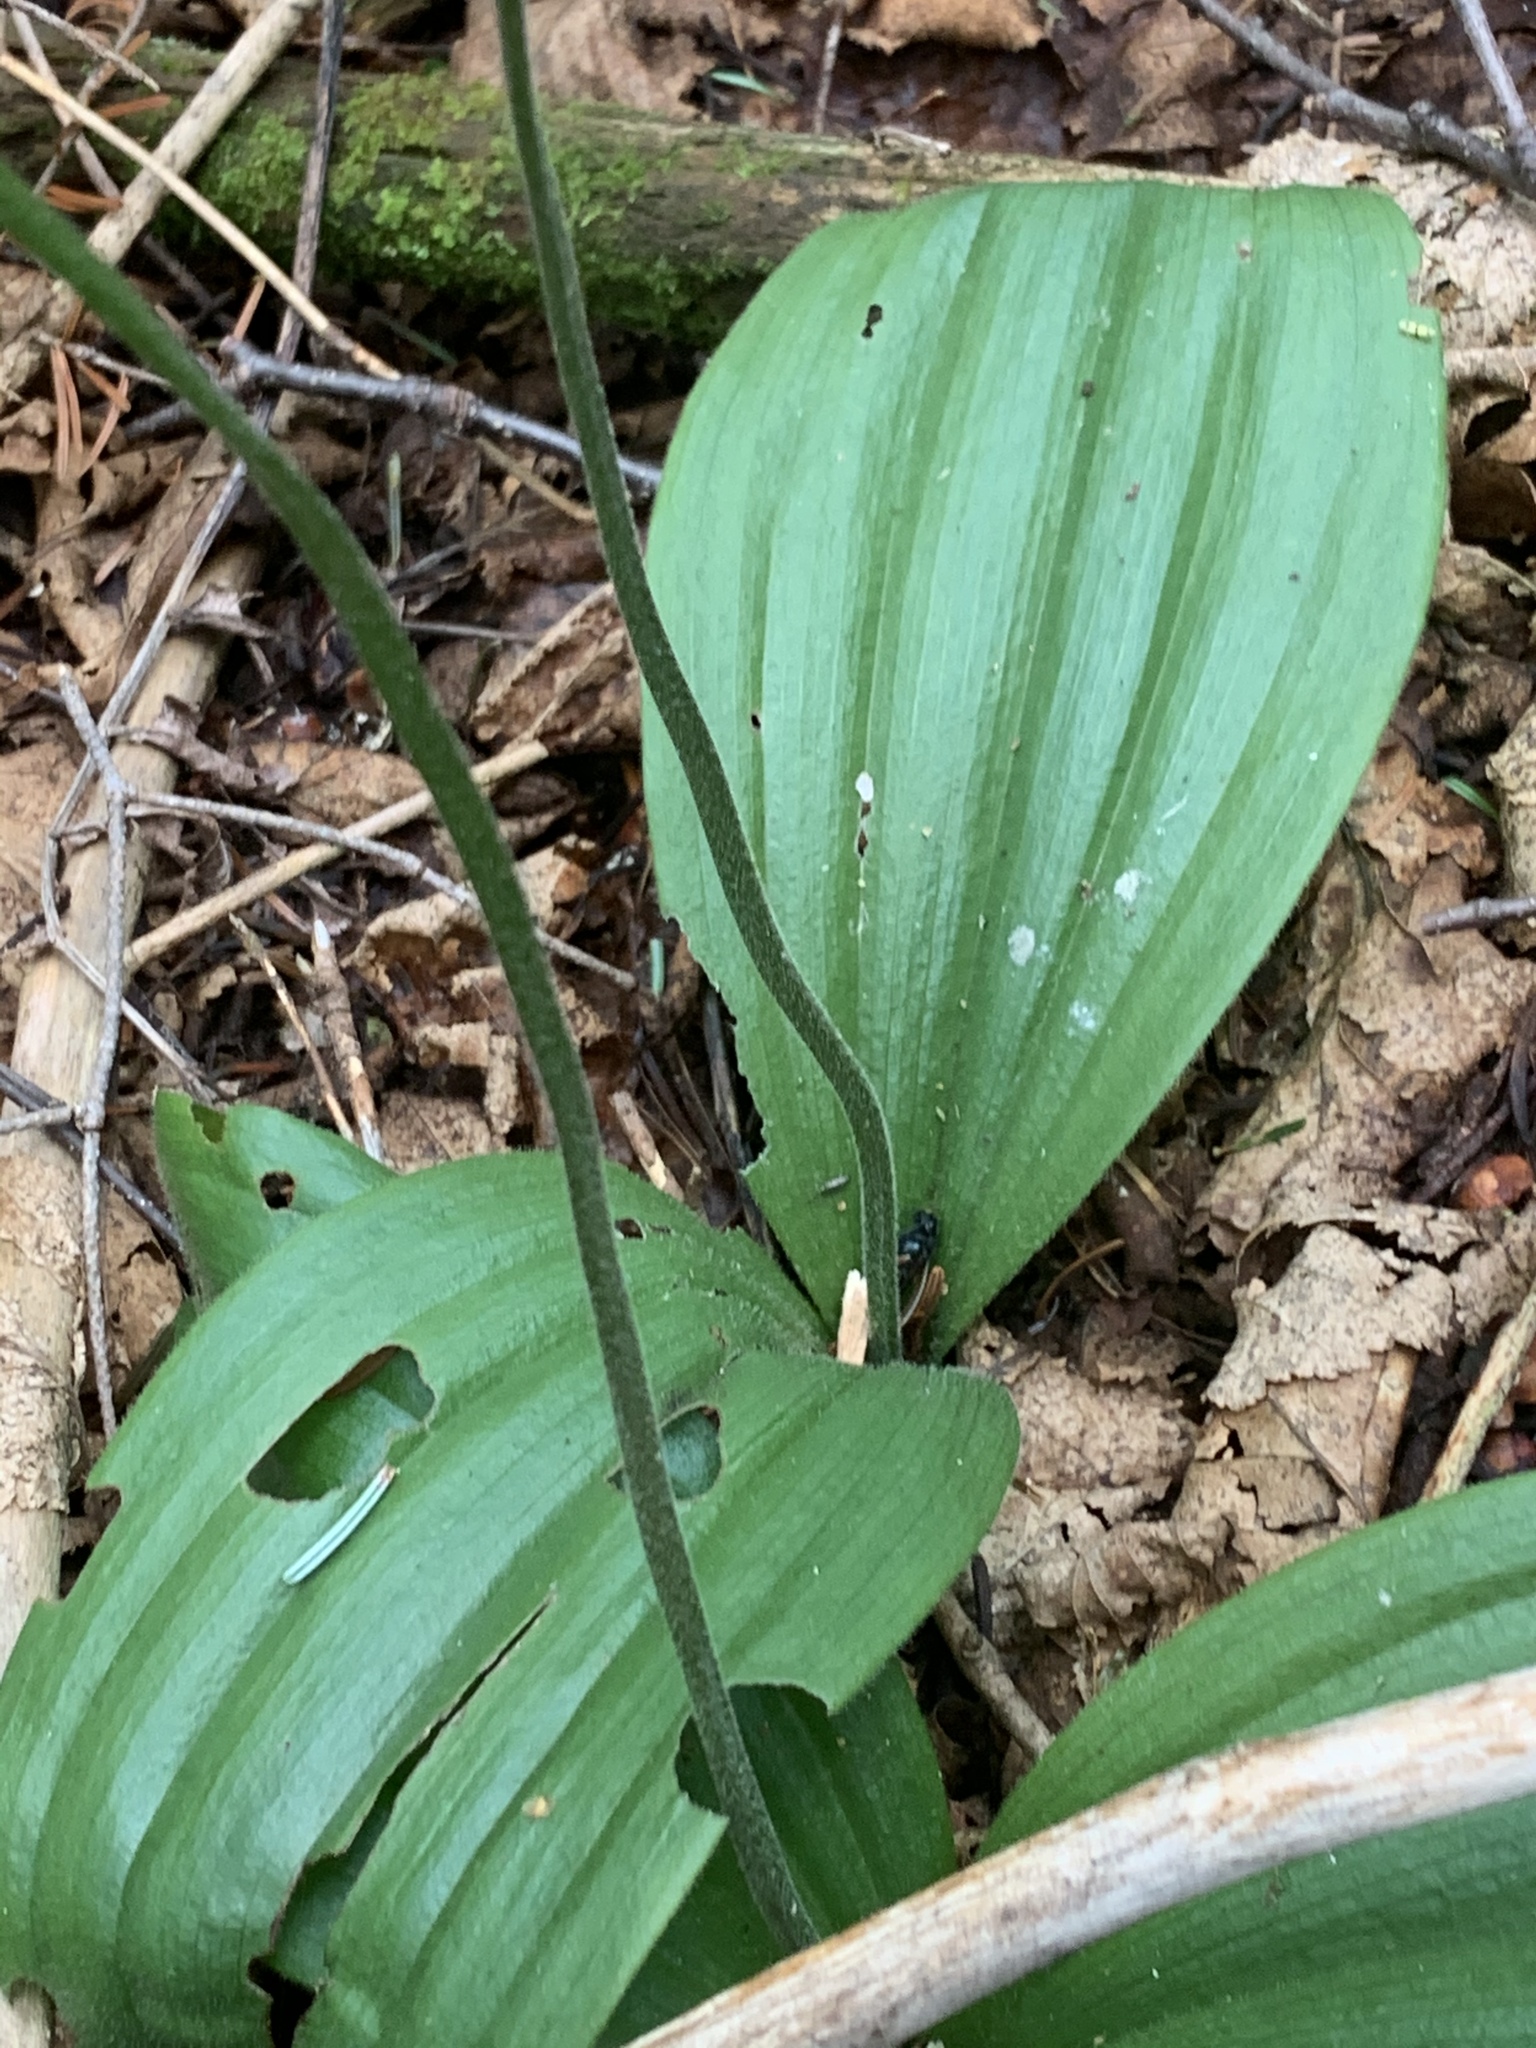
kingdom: Plantae
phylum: Tracheophyta
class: Liliopsida
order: Asparagales
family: Orchidaceae
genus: Cypripedium
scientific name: Cypripedium acaule
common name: Pink lady's-slipper
